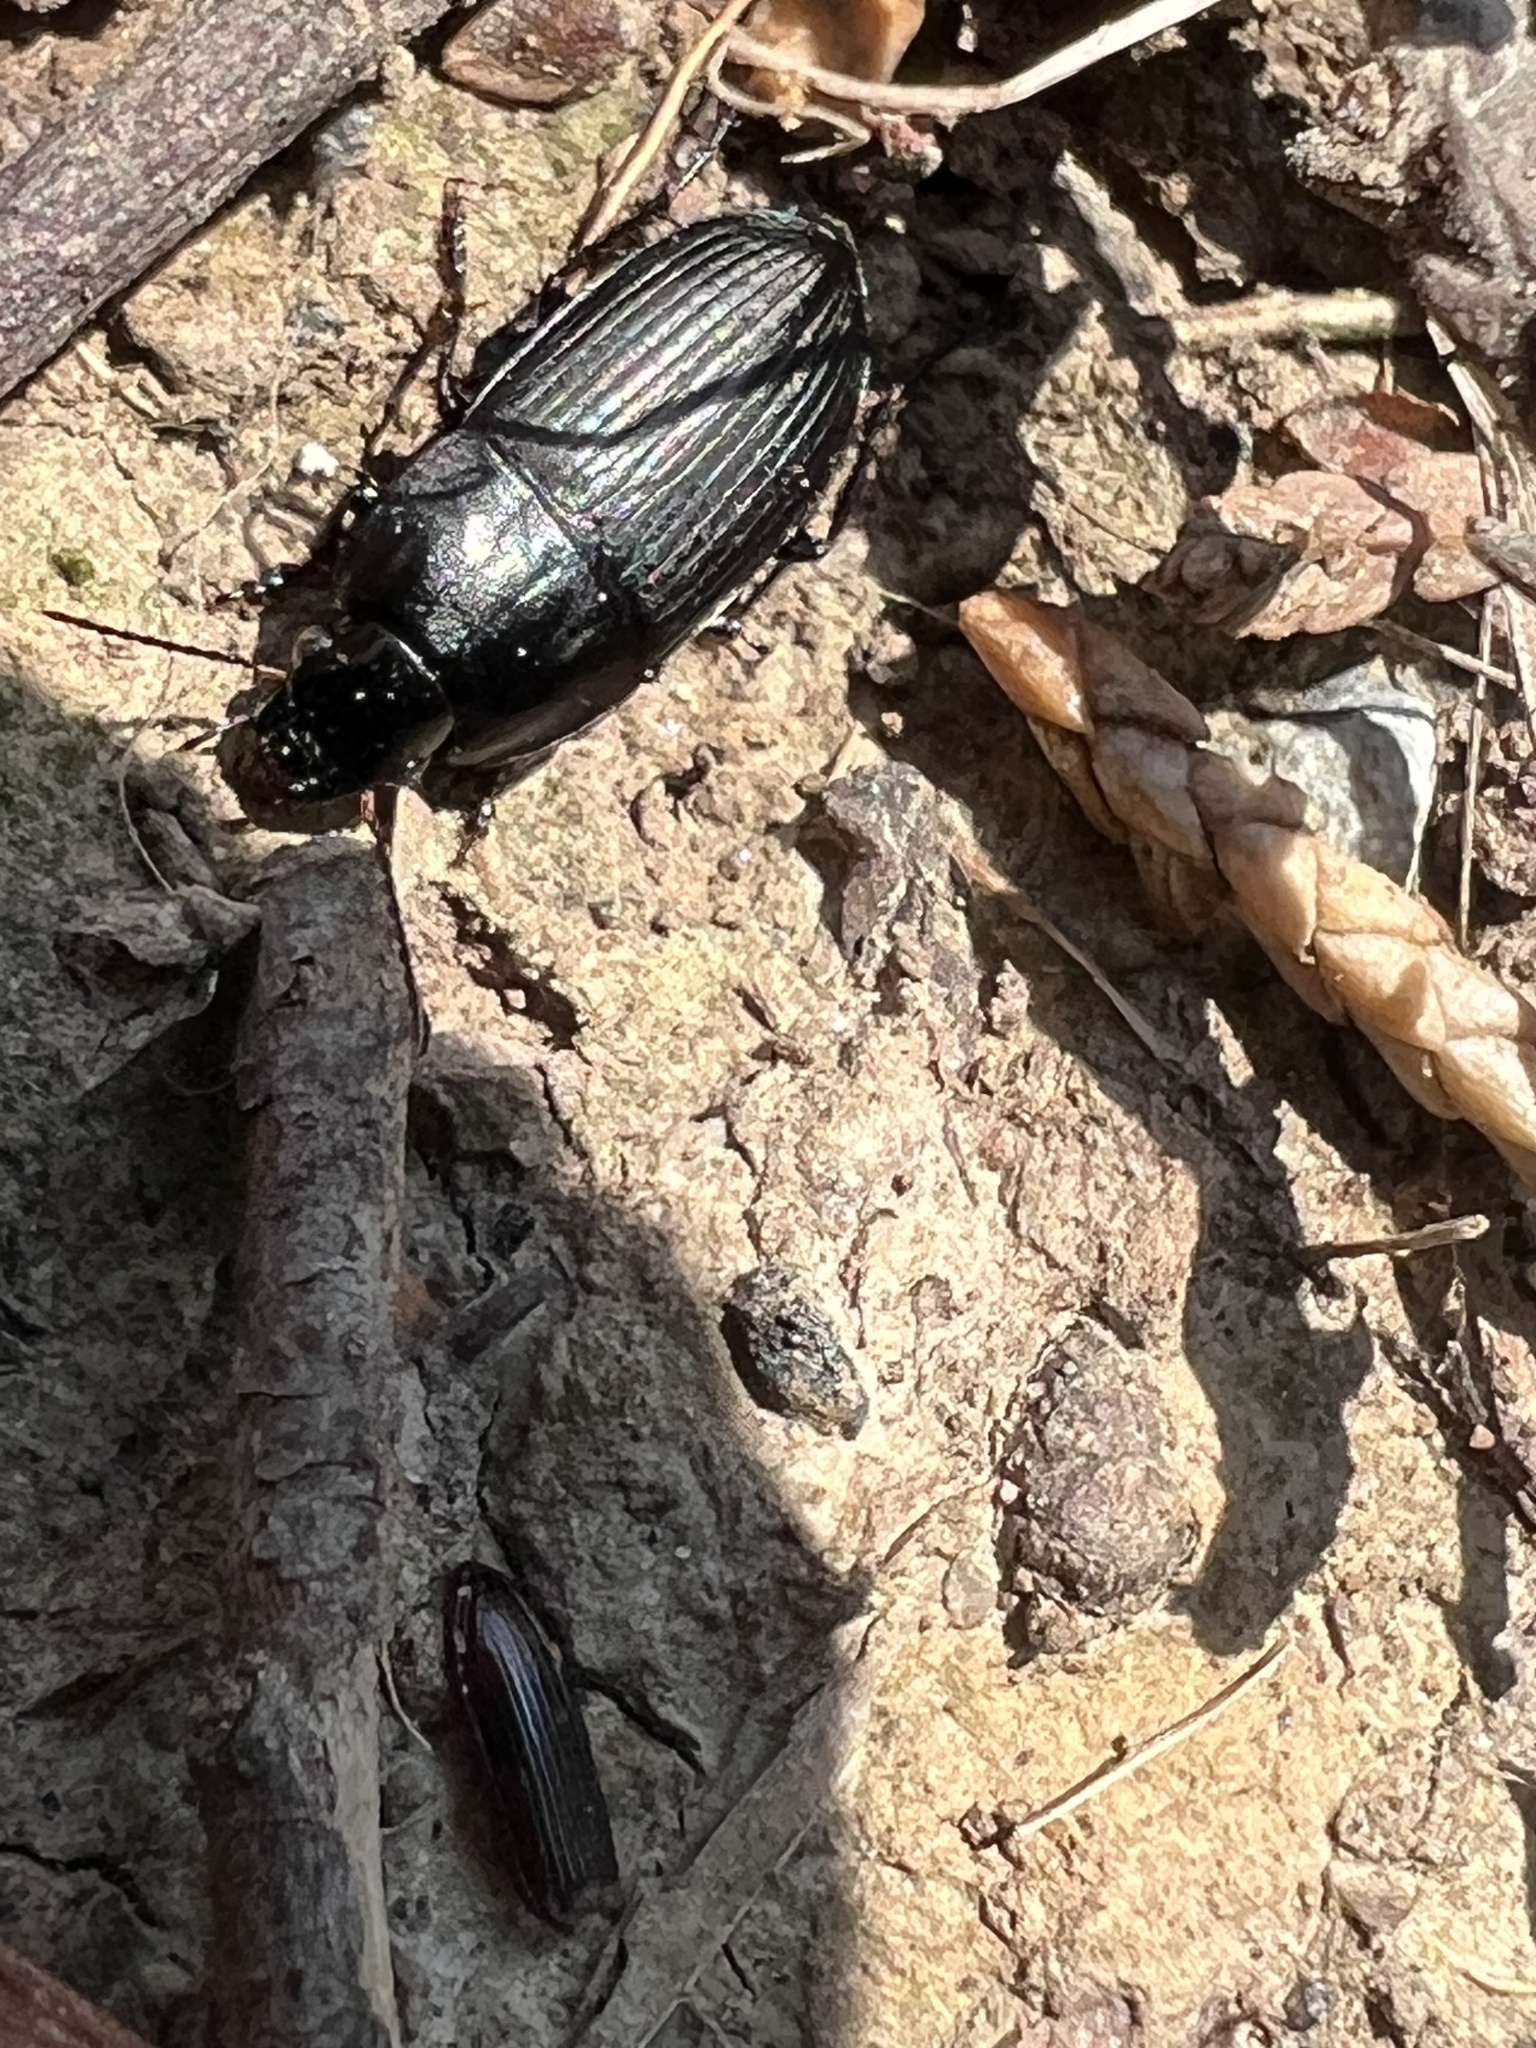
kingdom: Animalia
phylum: Arthropoda
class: Insecta
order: Coleoptera
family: Carabidae
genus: Anisodactylus
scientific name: Anisodactylus rusticus
